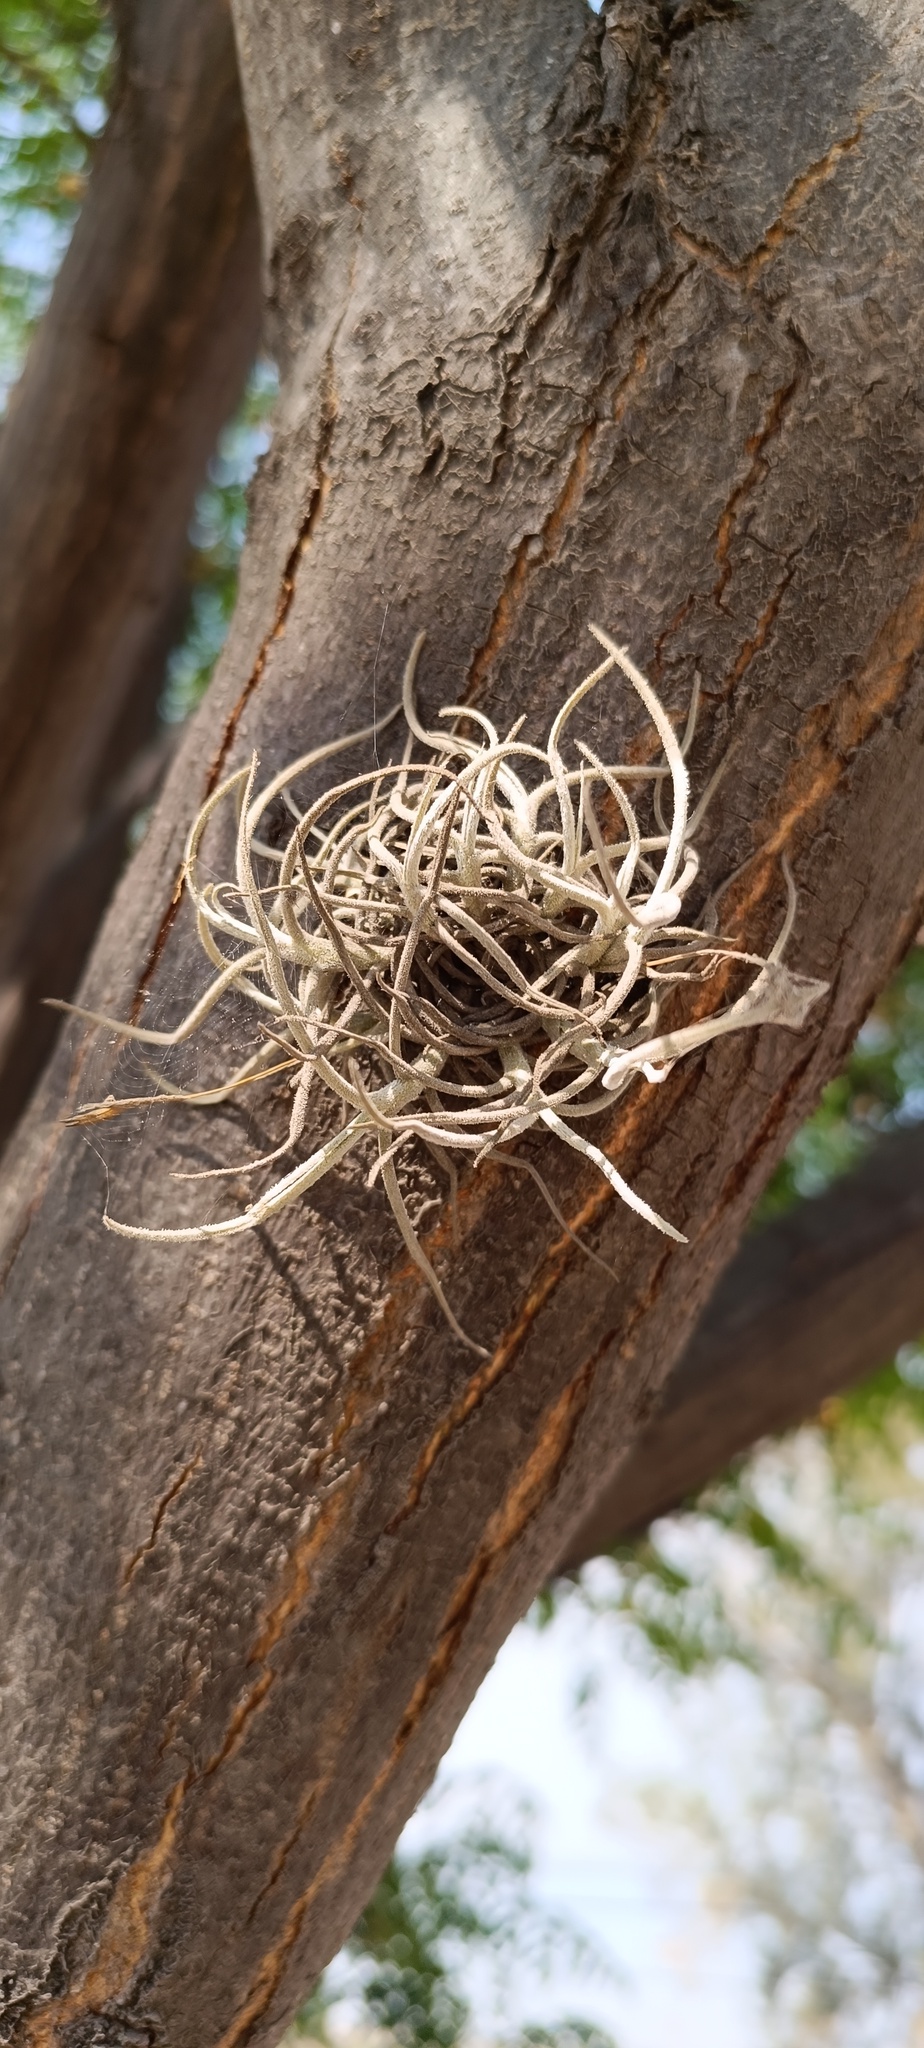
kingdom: Plantae
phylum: Tracheophyta
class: Liliopsida
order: Poales
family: Bromeliaceae
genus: Tillandsia
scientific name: Tillandsia recurvata
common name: Small ballmoss
